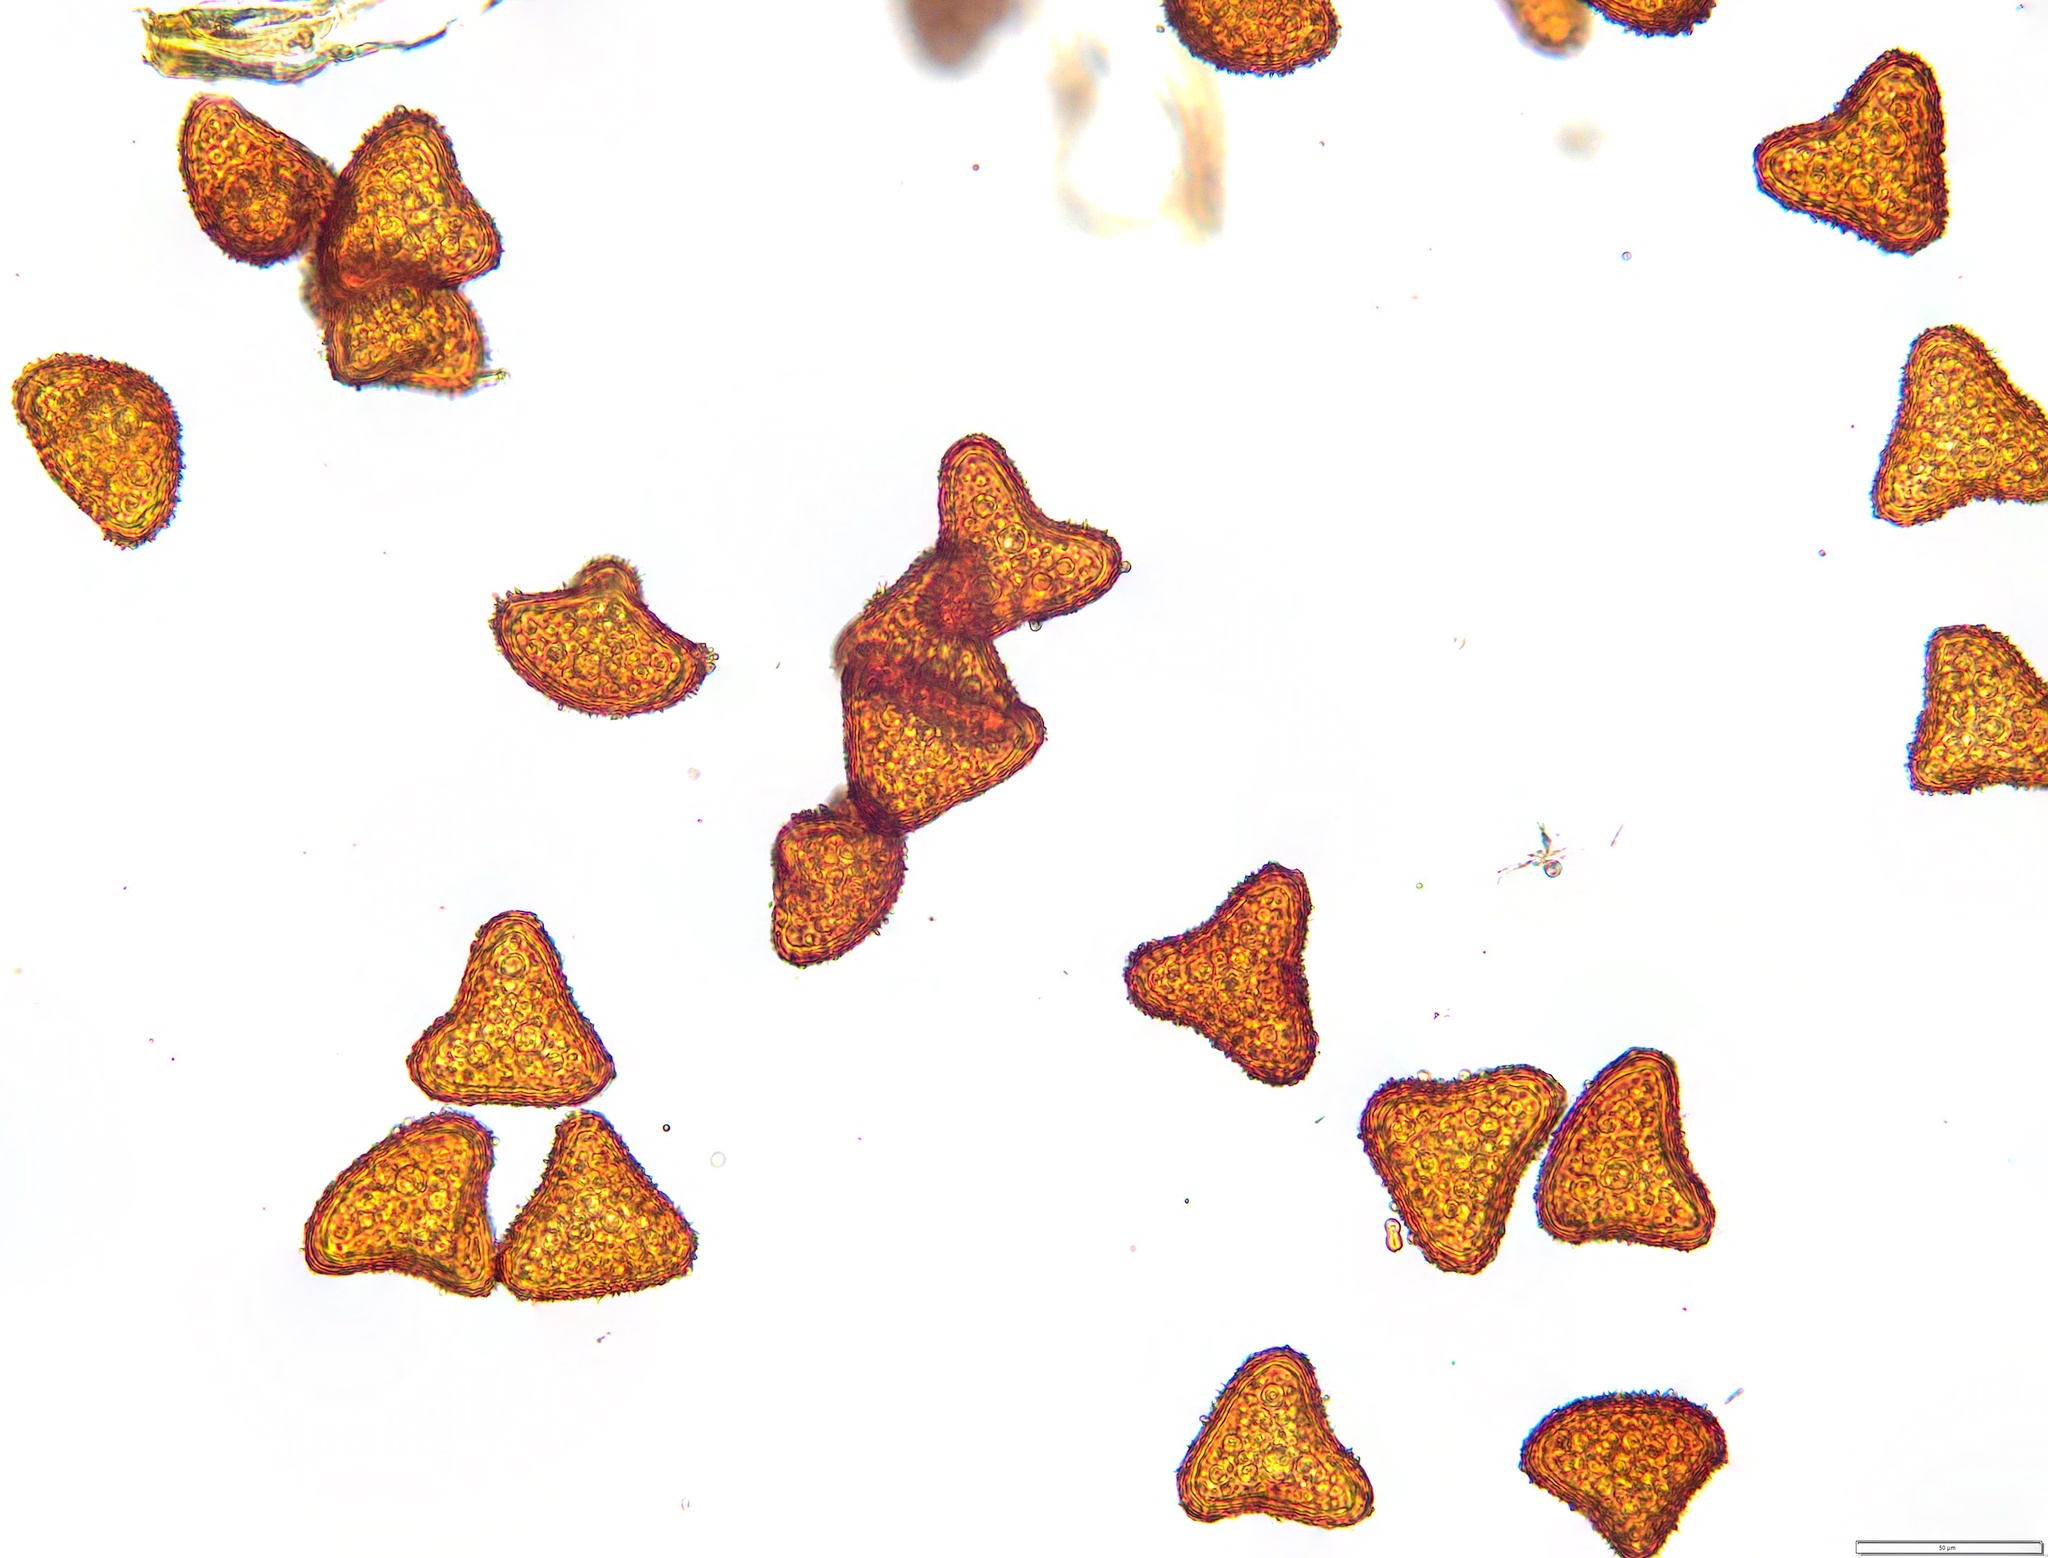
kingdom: Plantae
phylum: Tracheophyta
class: Polypodiopsida
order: Cyatheales
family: Cyatheaceae
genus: Sphaeropteris
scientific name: Sphaeropteris medullaris
